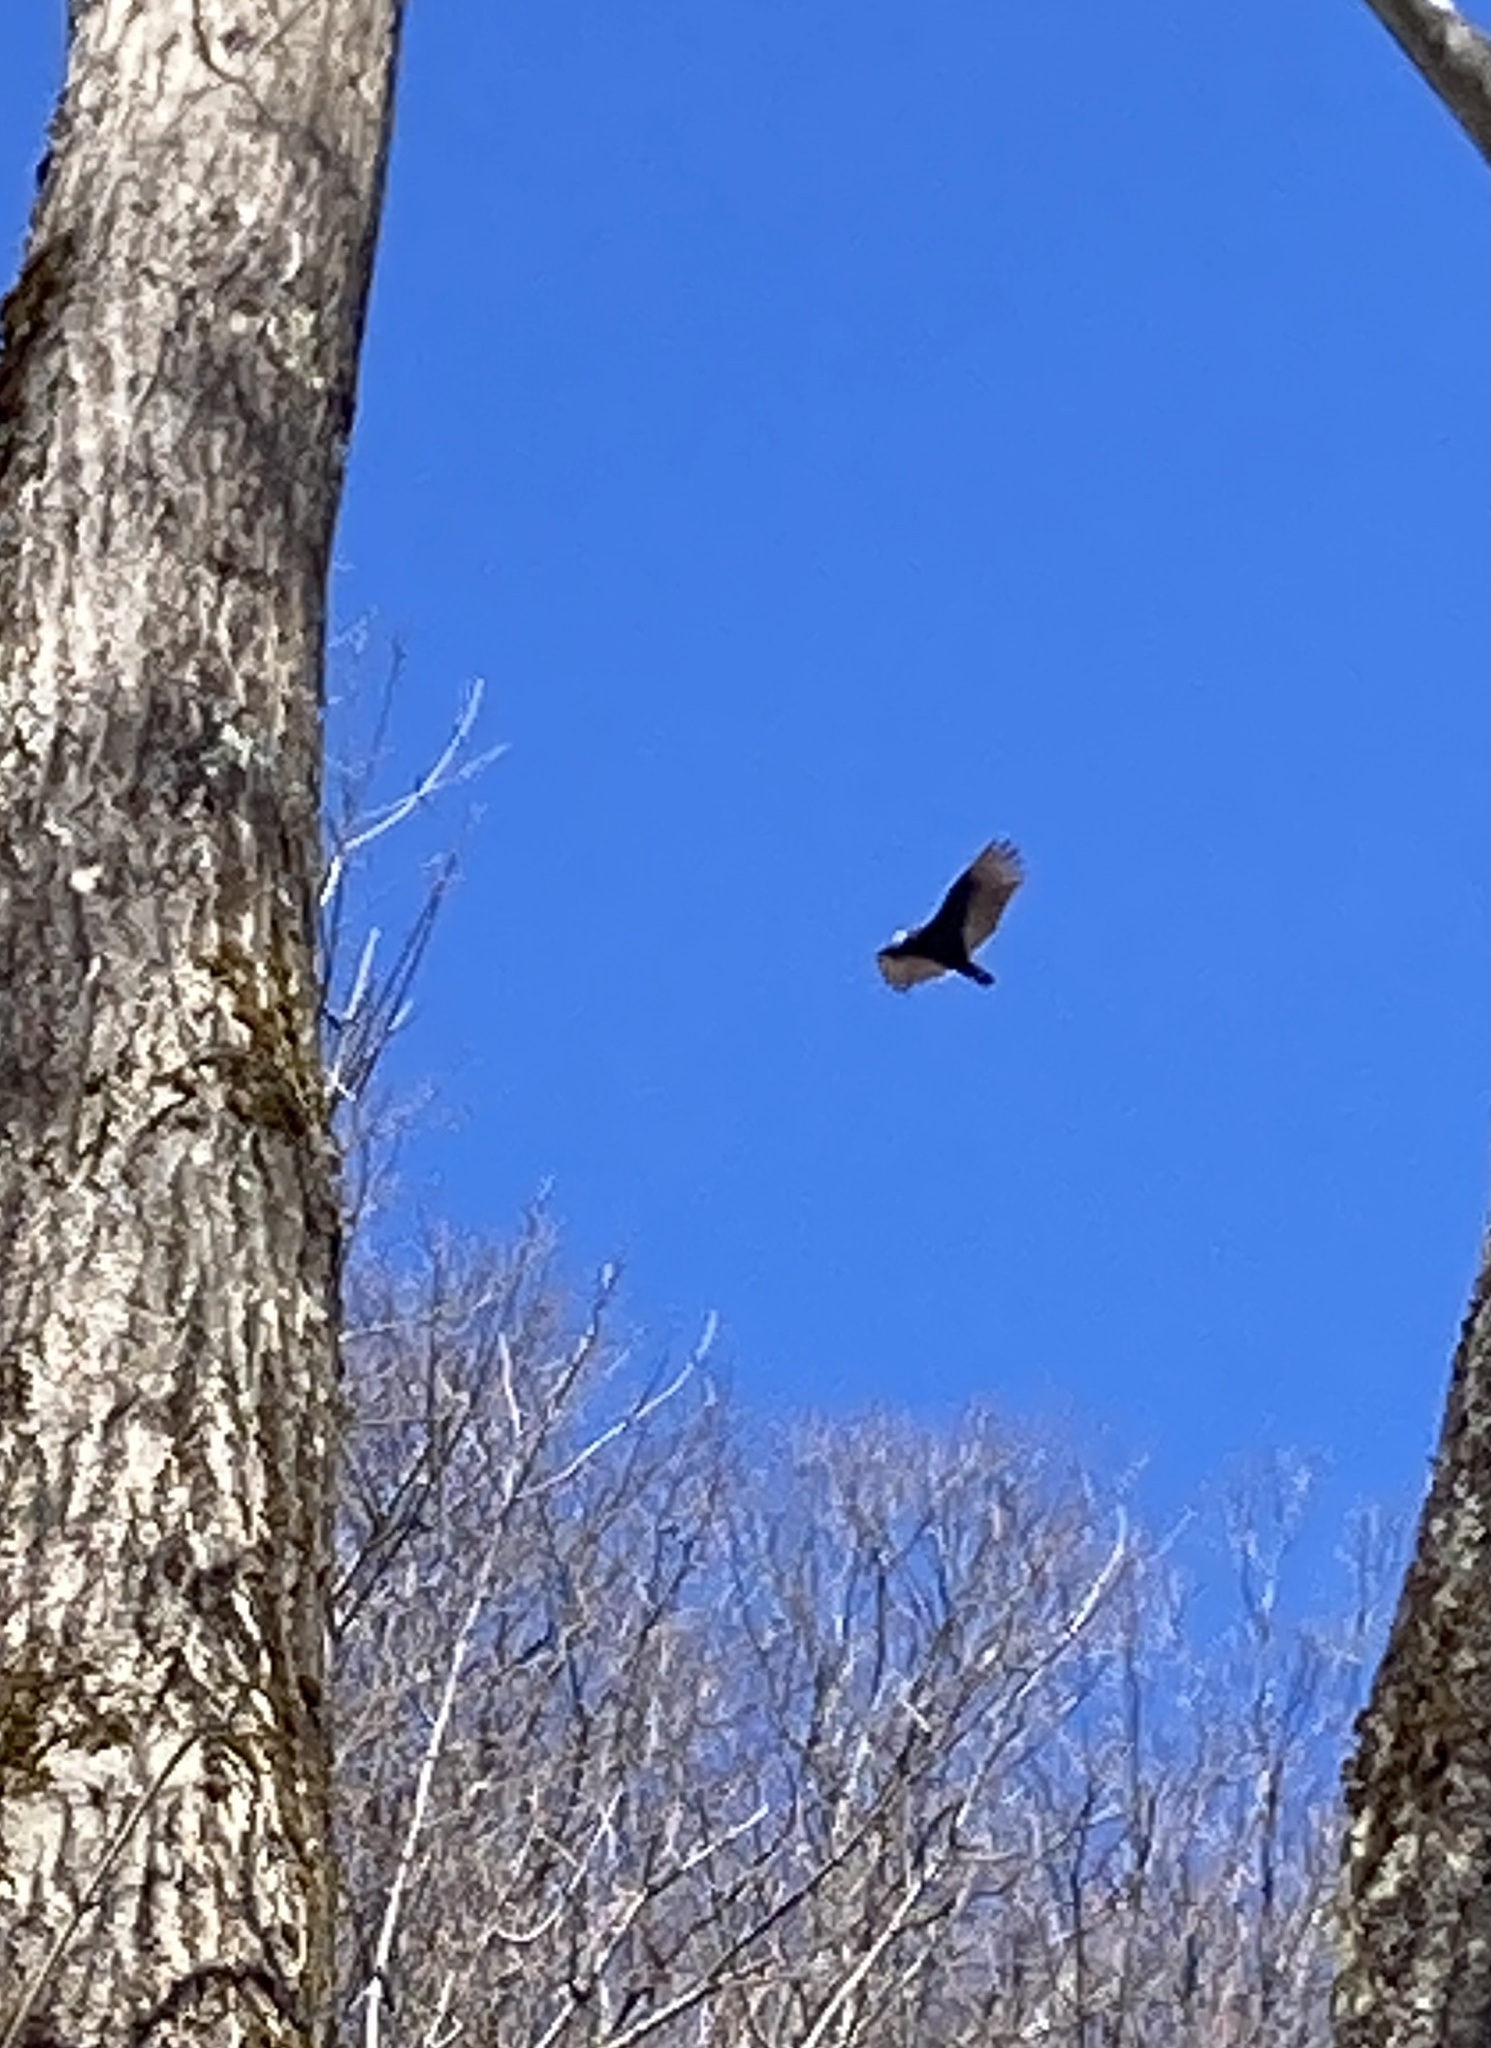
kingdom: Animalia
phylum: Chordata
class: Aves
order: Accipitriformes
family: Cathartidae
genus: Cathartes
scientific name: Cathartes aura
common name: Turkey vulture
